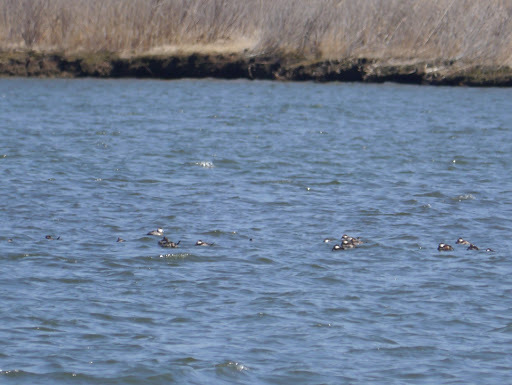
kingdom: Animalia
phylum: Chordata
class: Aves
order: Anseriformes
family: Anatidae
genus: Oxyura
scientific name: Oxyura jamaicensis
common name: Ruddy duck
